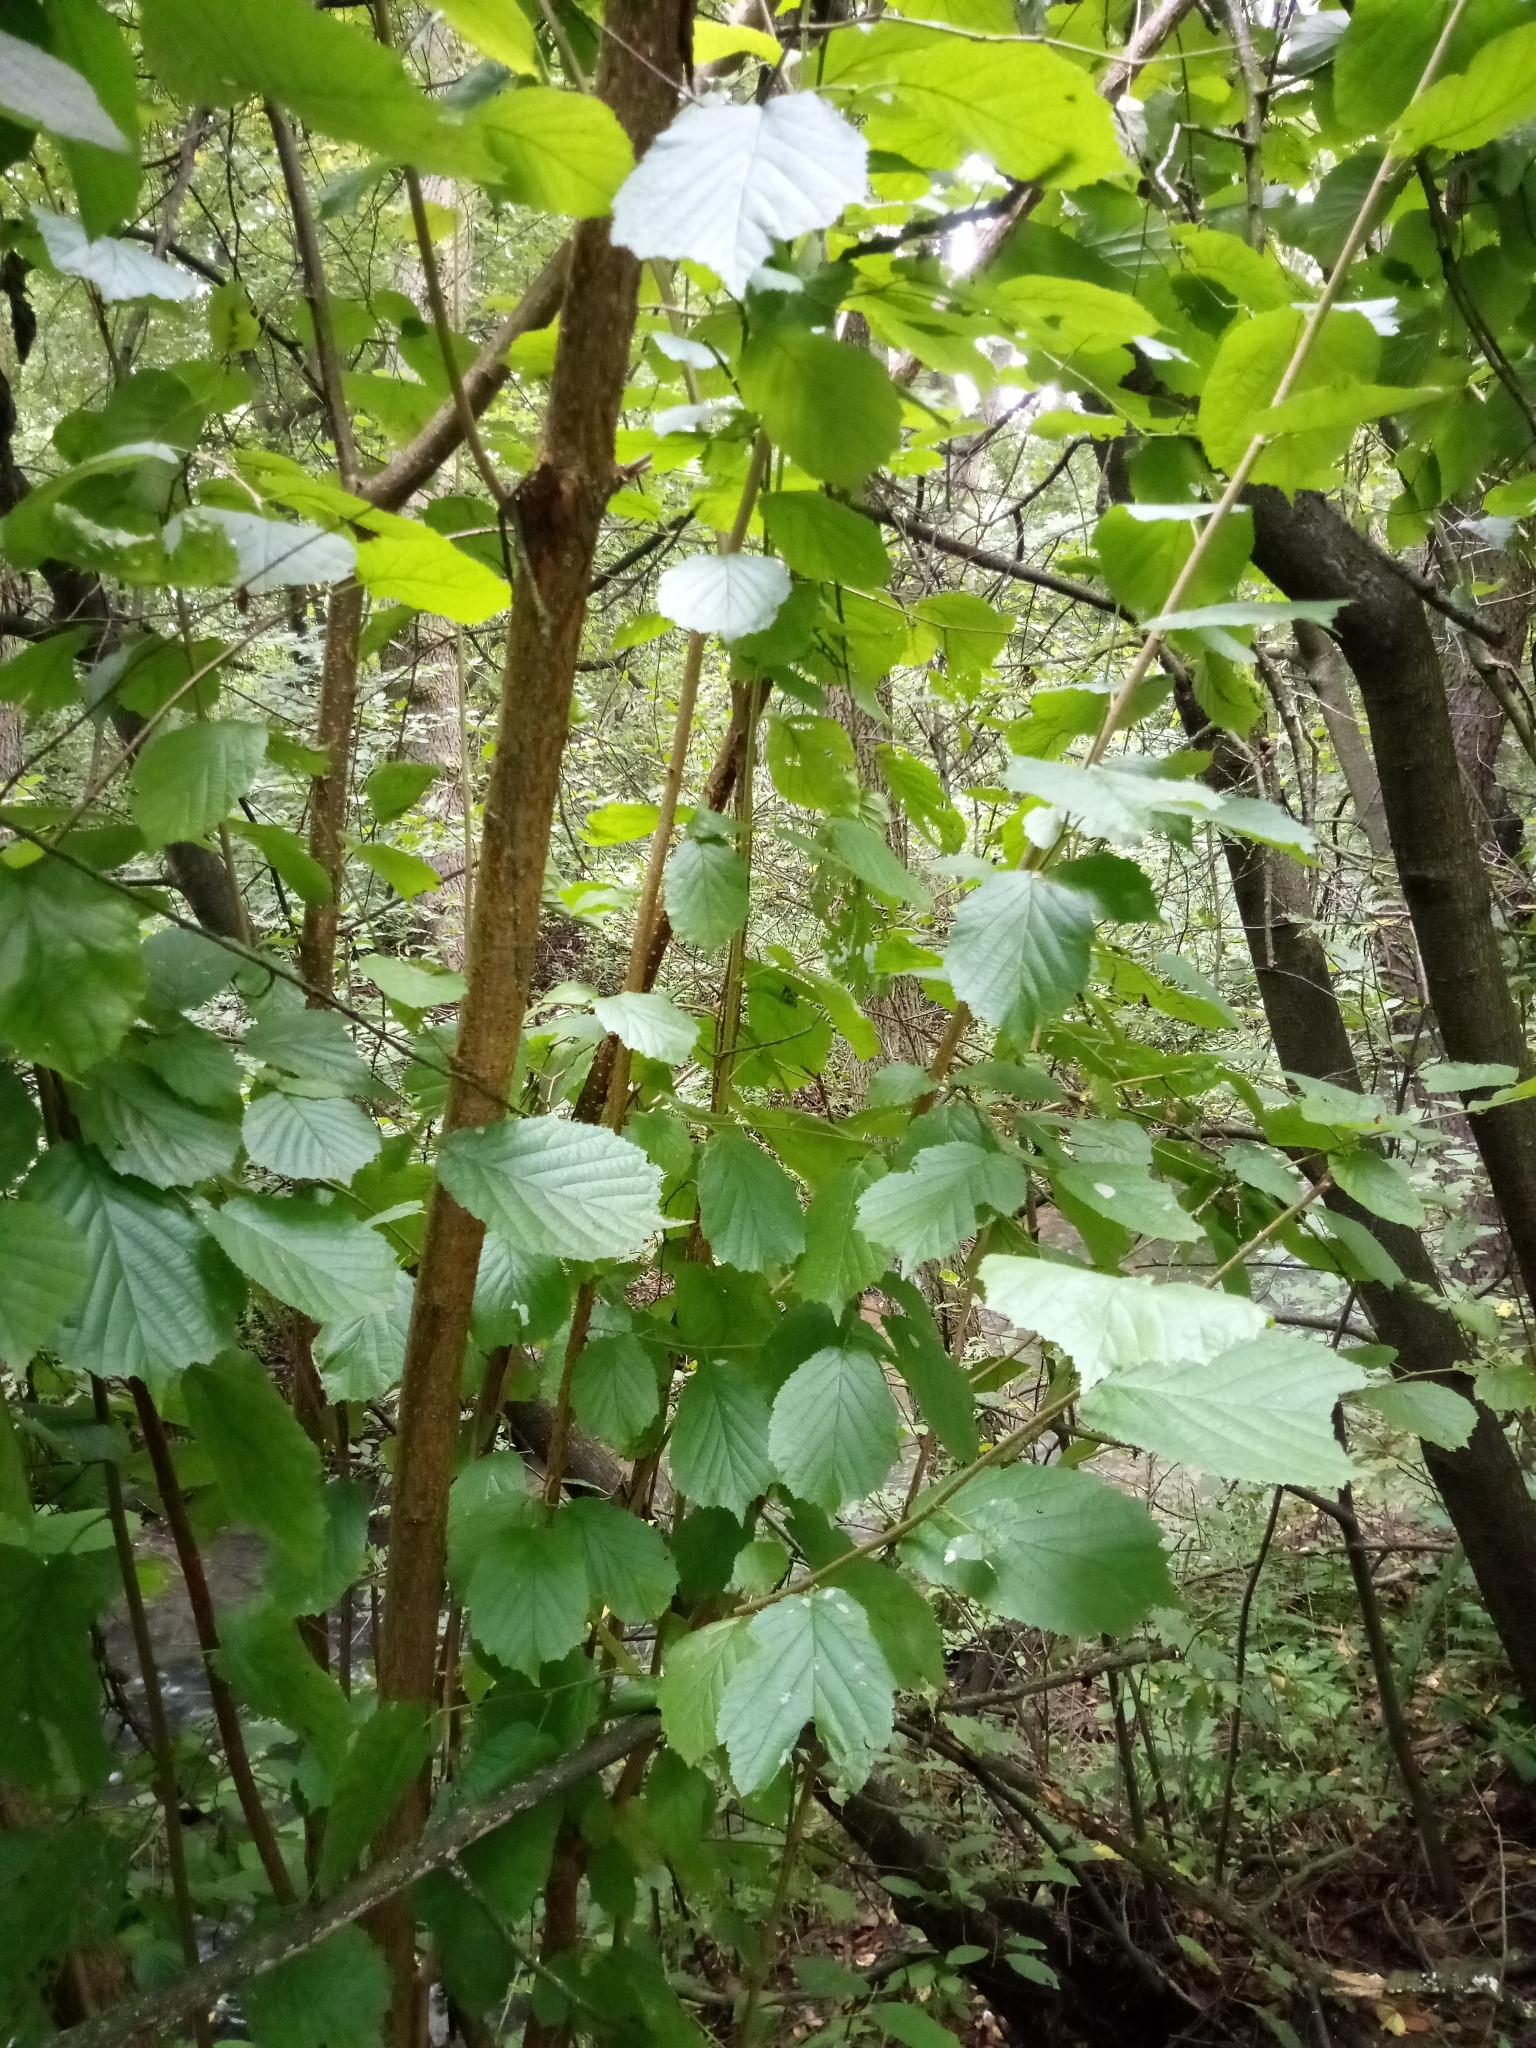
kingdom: Plantae
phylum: Tracheophyta
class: Magnoliopsida
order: Fagales
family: Betulaceae
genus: Corylus
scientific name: Corylus avellana
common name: European hazel
